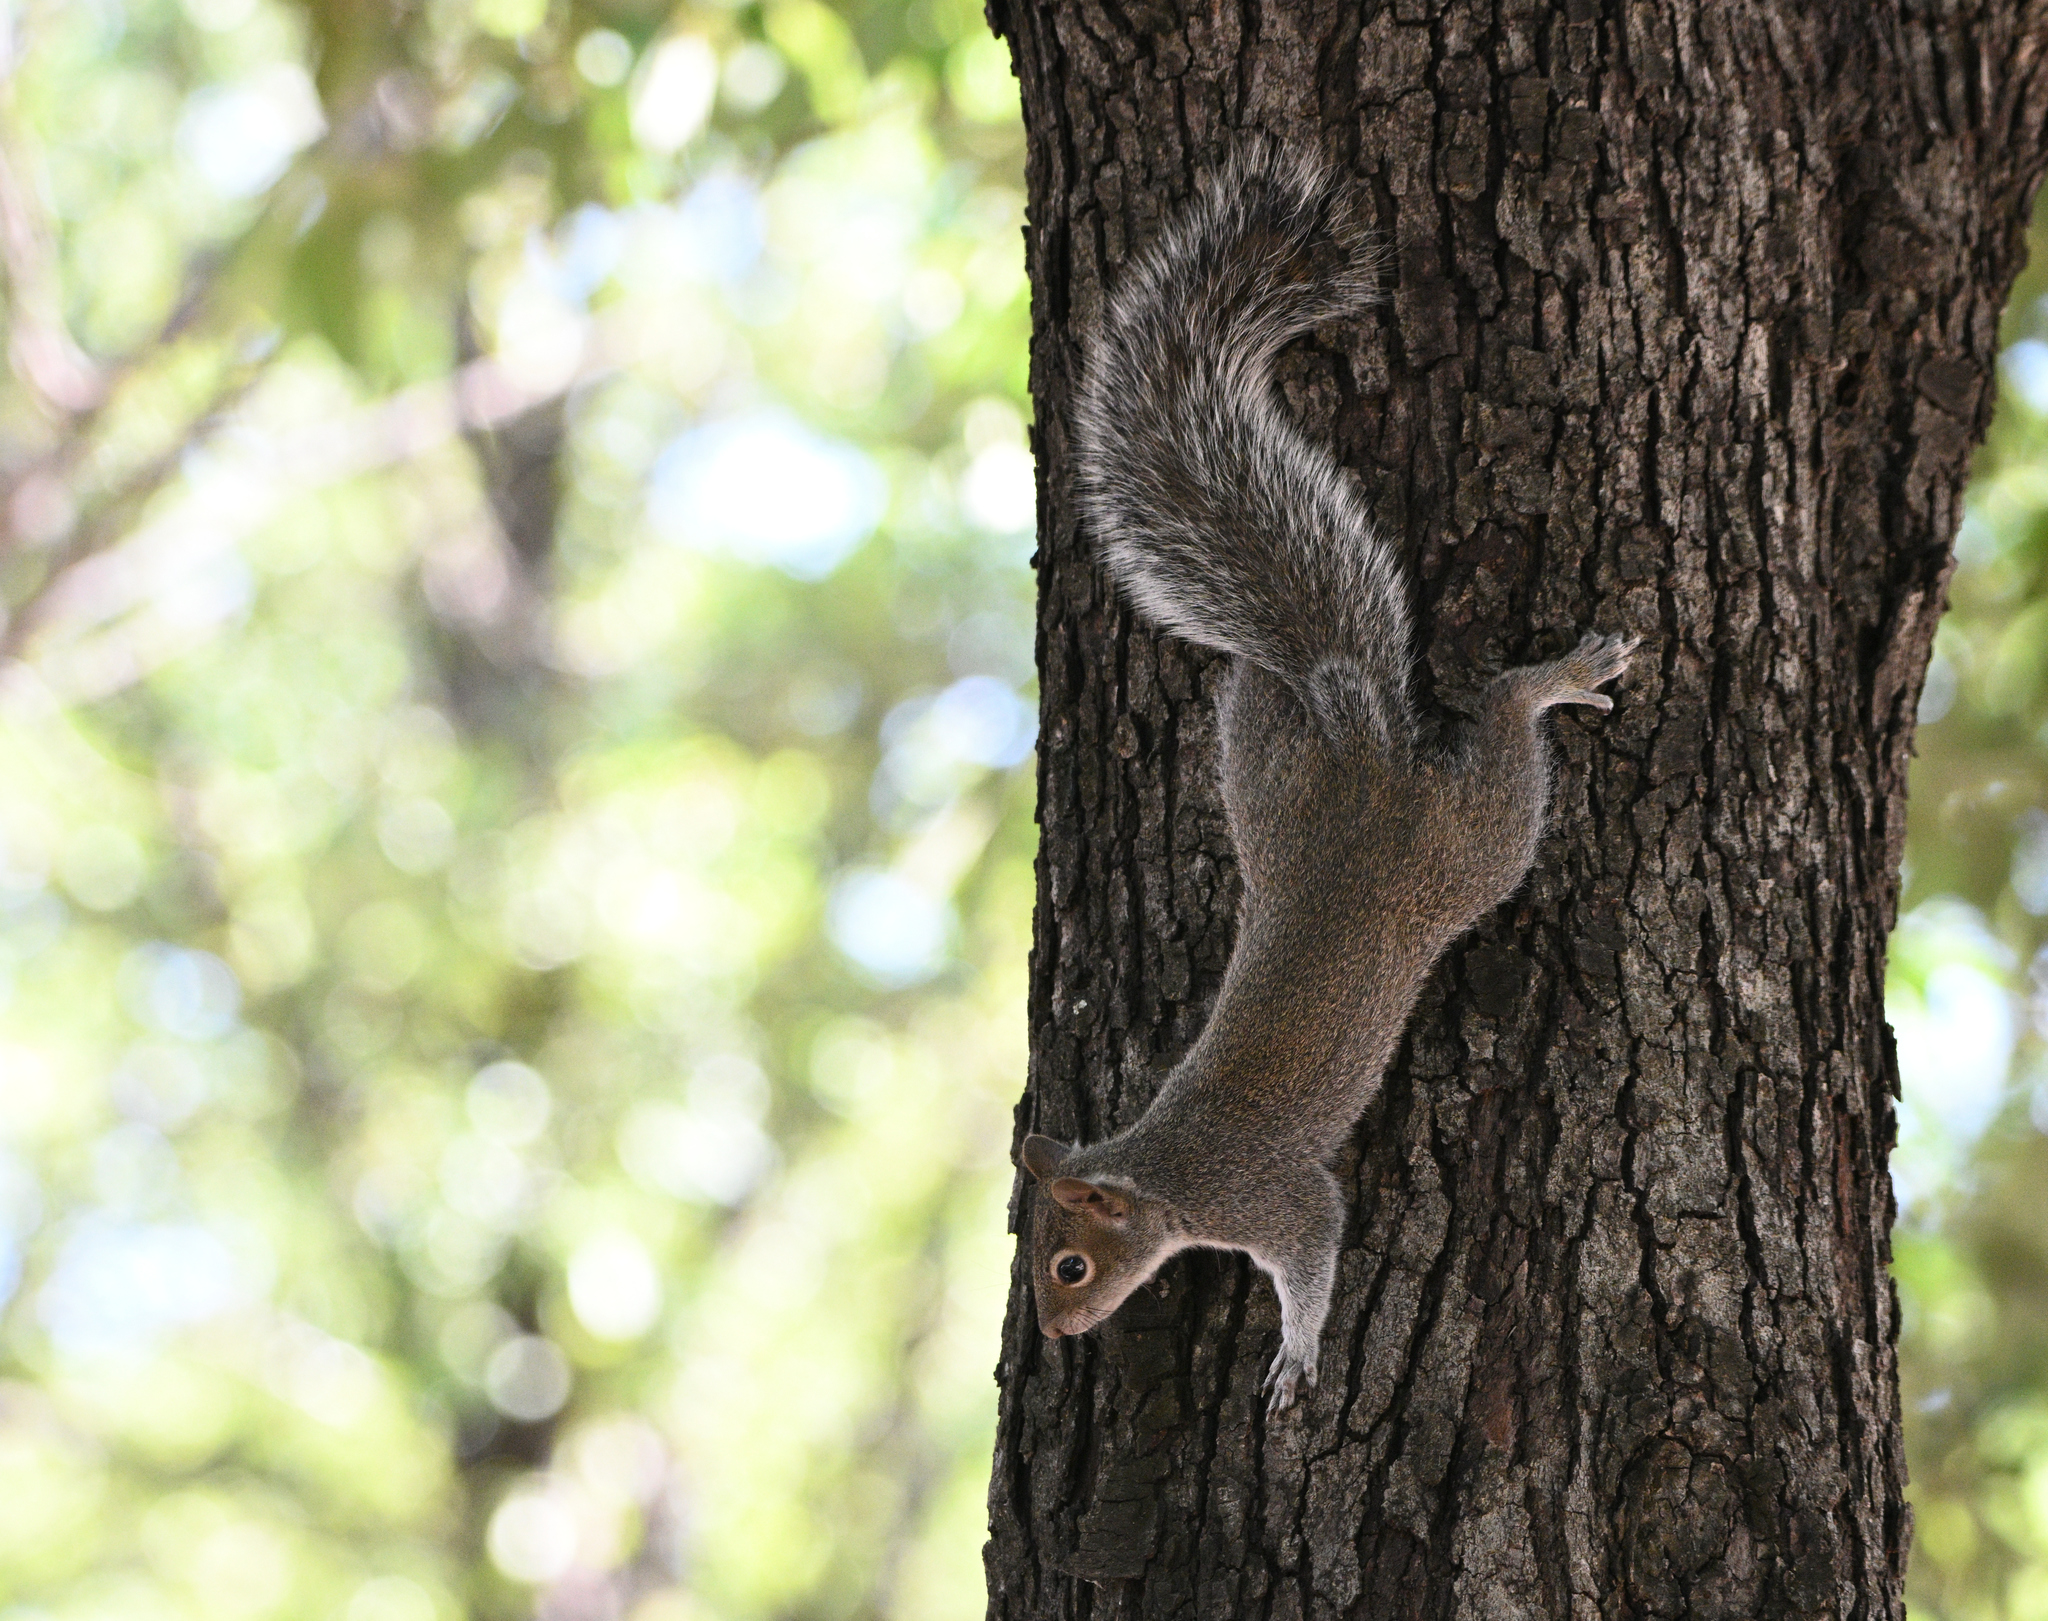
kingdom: Animalia
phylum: Chordata
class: Mammalia
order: Rodentia
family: Sciuridae
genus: Sciurus
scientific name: Sciurus alleni
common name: Allen's squirrel
